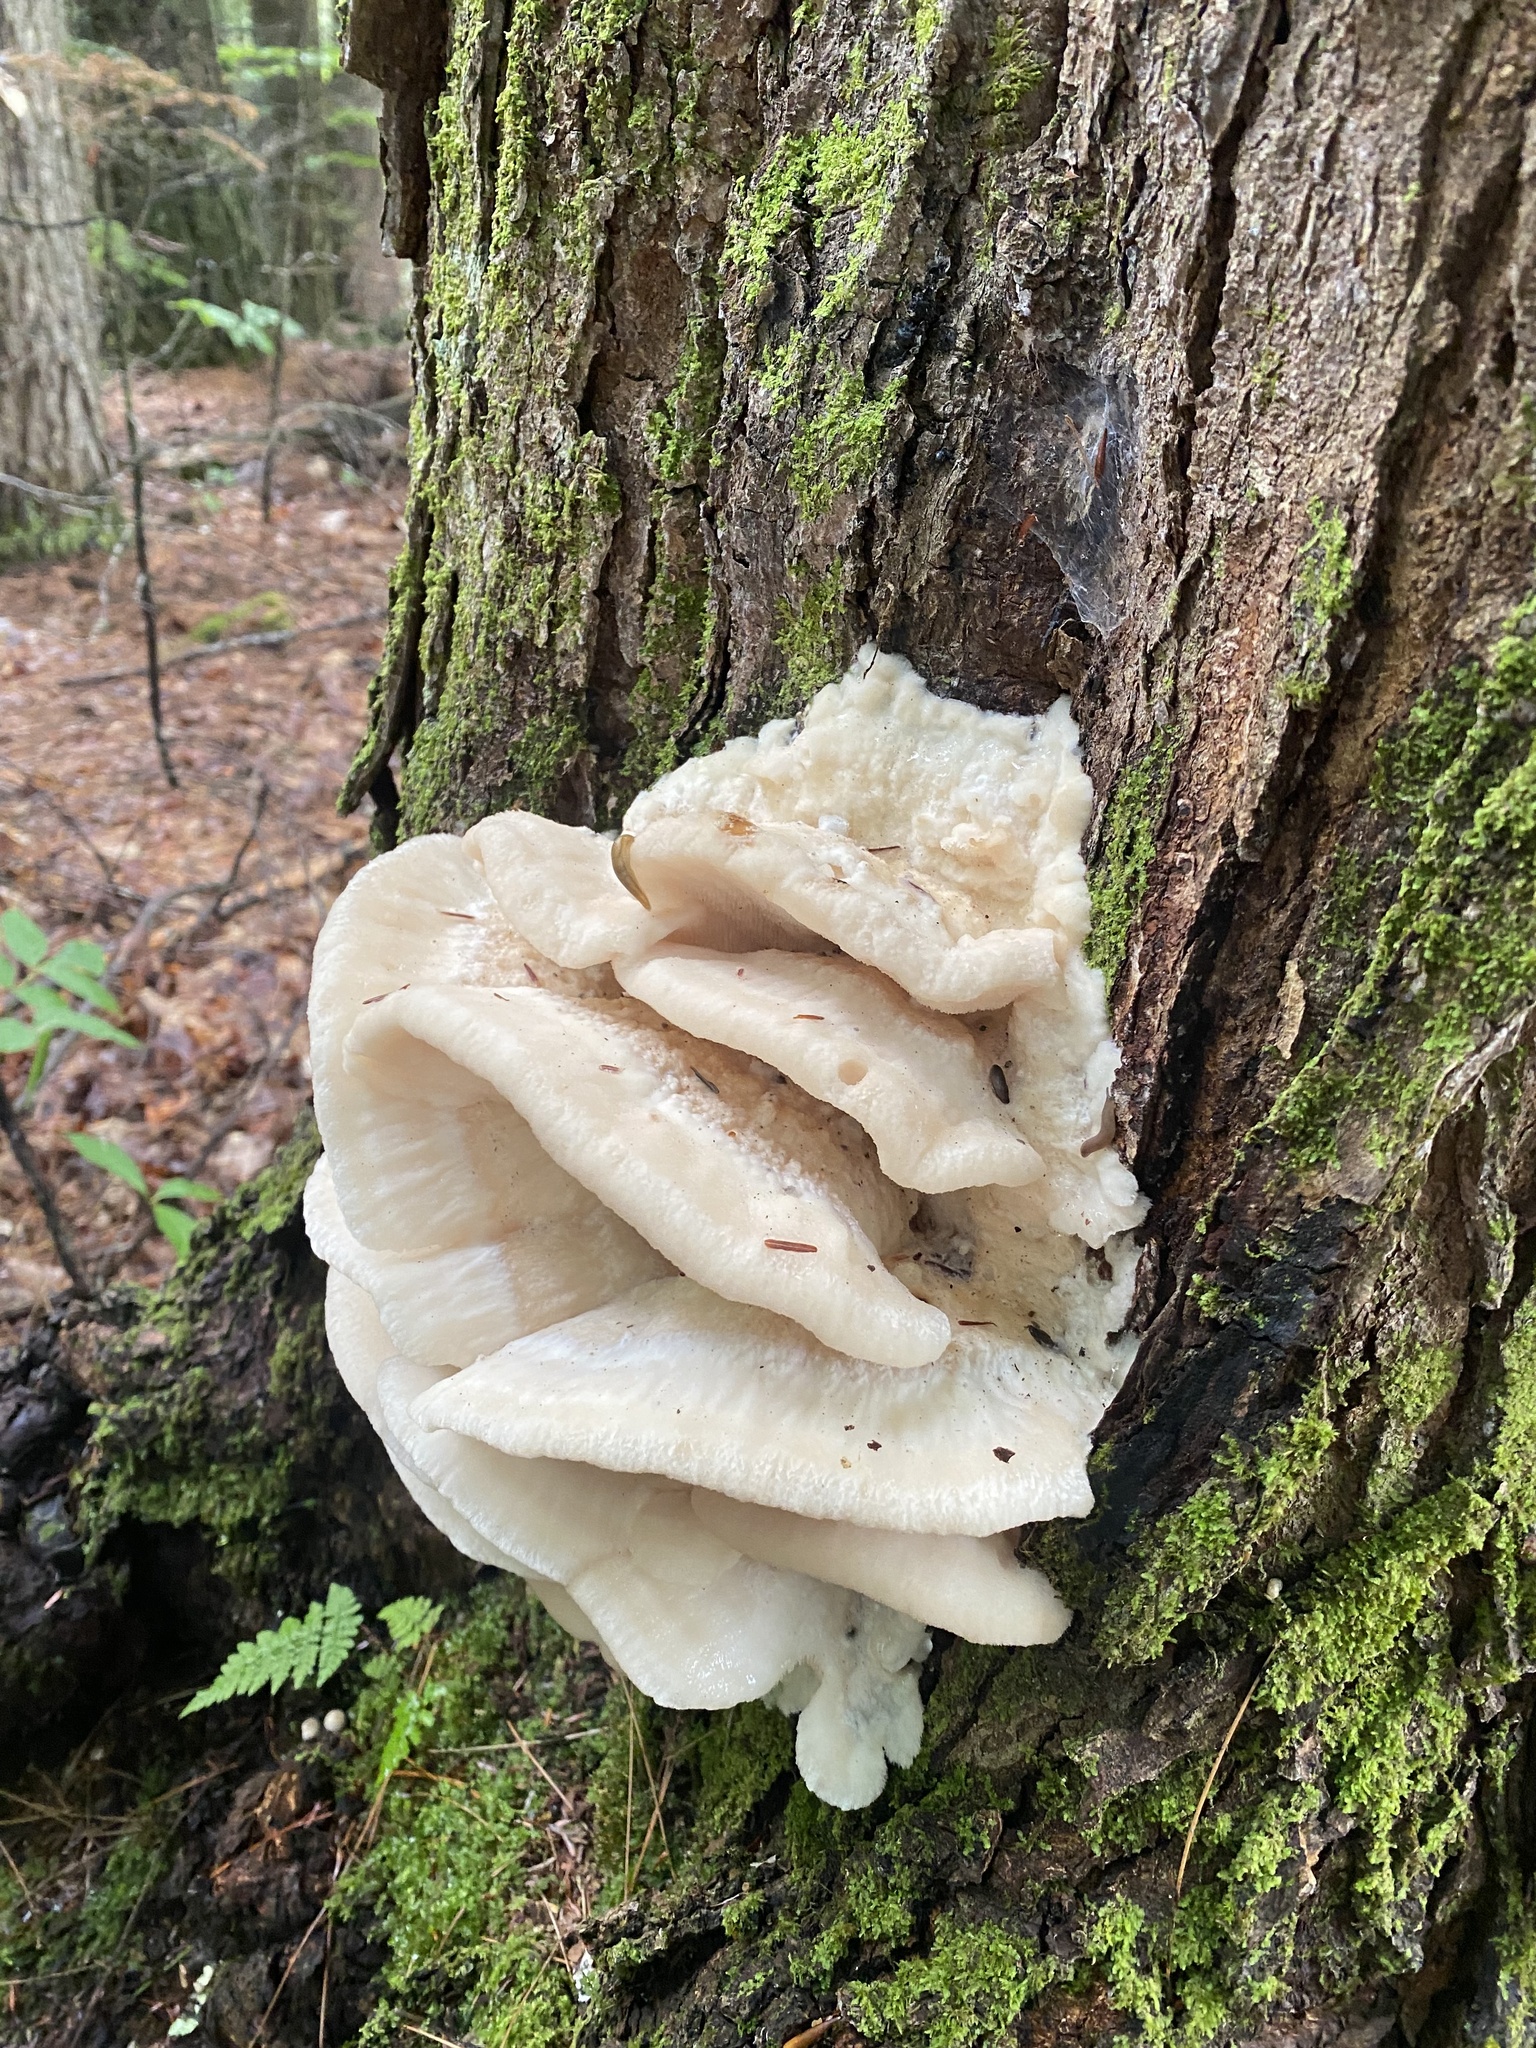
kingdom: Fungi
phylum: Basidiomycota
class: Agaricomycetes
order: Polyporales
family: Meruliaceae
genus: Climacodon
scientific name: Climacodon septentrionalis
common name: Northern tooth
